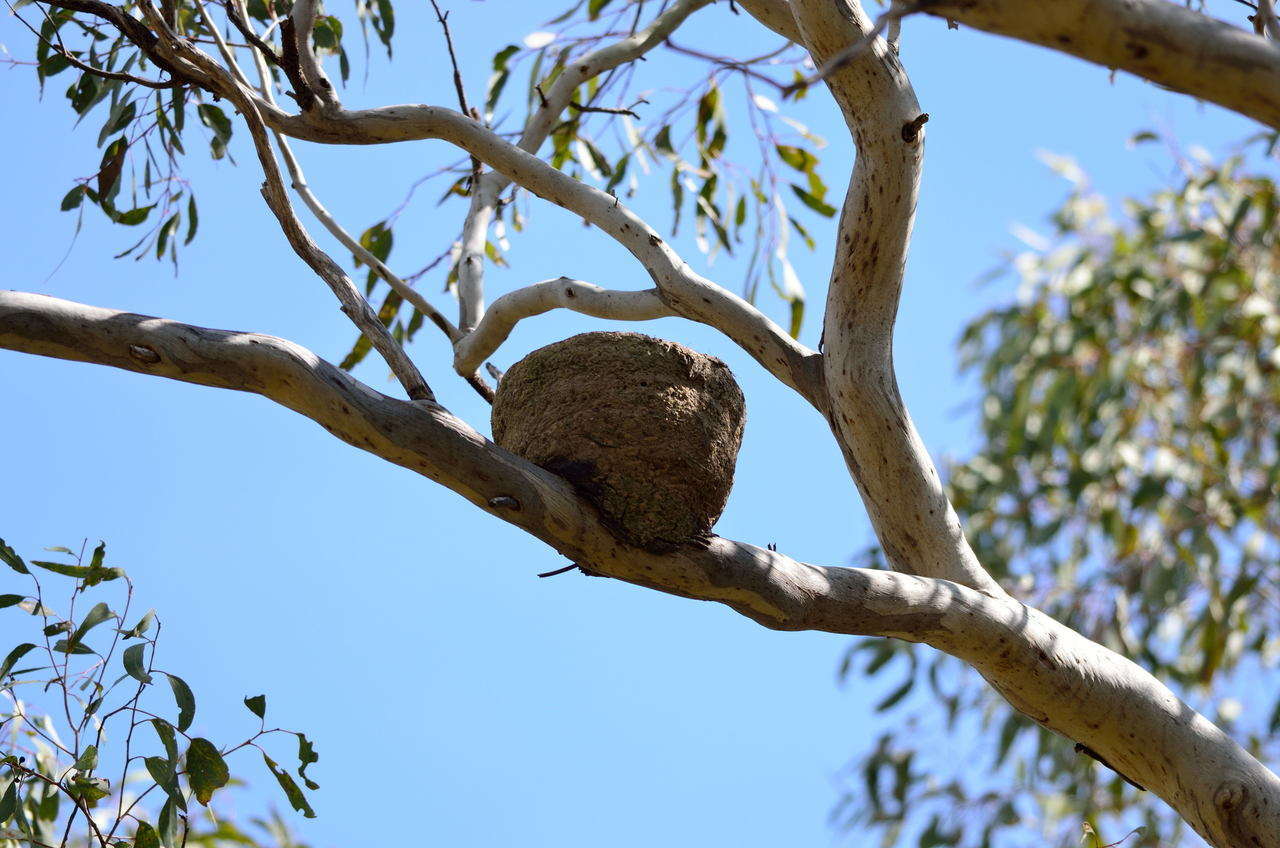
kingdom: Animalia
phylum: Chordata
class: Aves
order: Passeriformes
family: Corcoracidae
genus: Corcorax
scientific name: Corcorax melanoramphos
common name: White-winged chough
